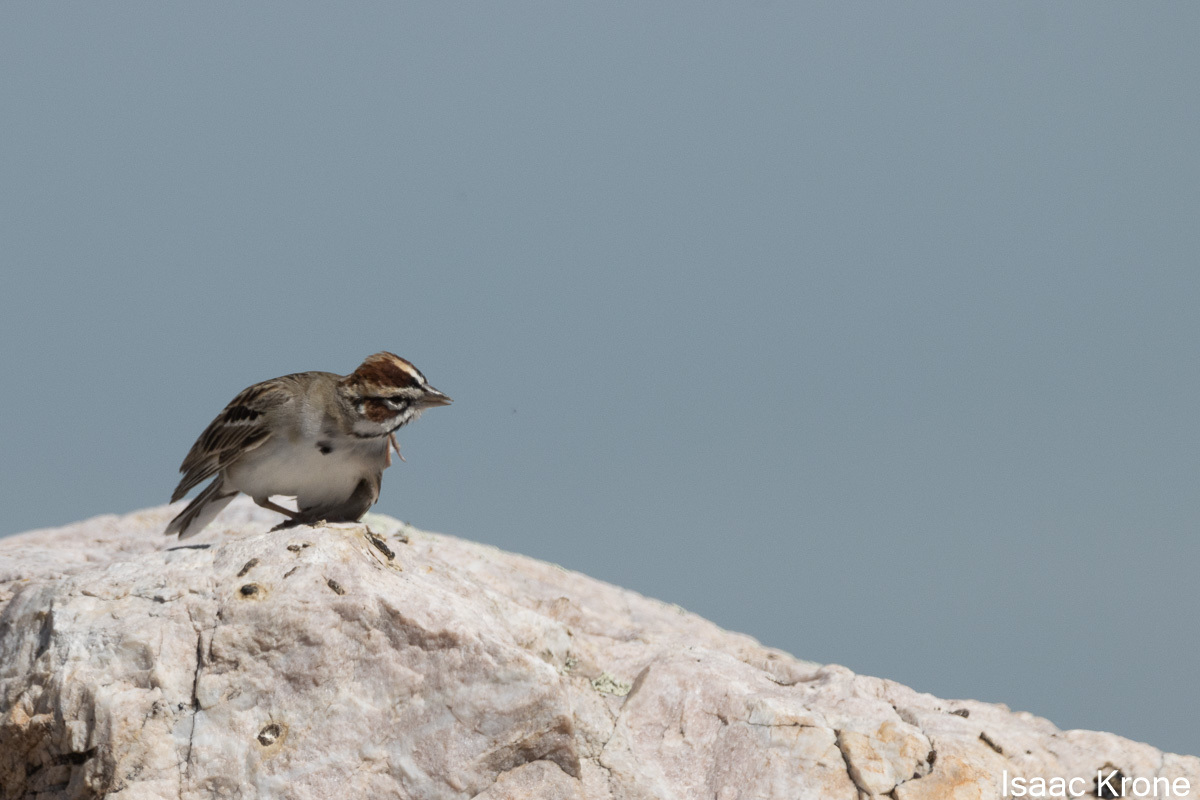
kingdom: Animalia
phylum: Chordata
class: Aves
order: Passeriformes
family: Passerellidae
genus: Chondestes
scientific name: Chondestes grammacus
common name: Lark sparrow
